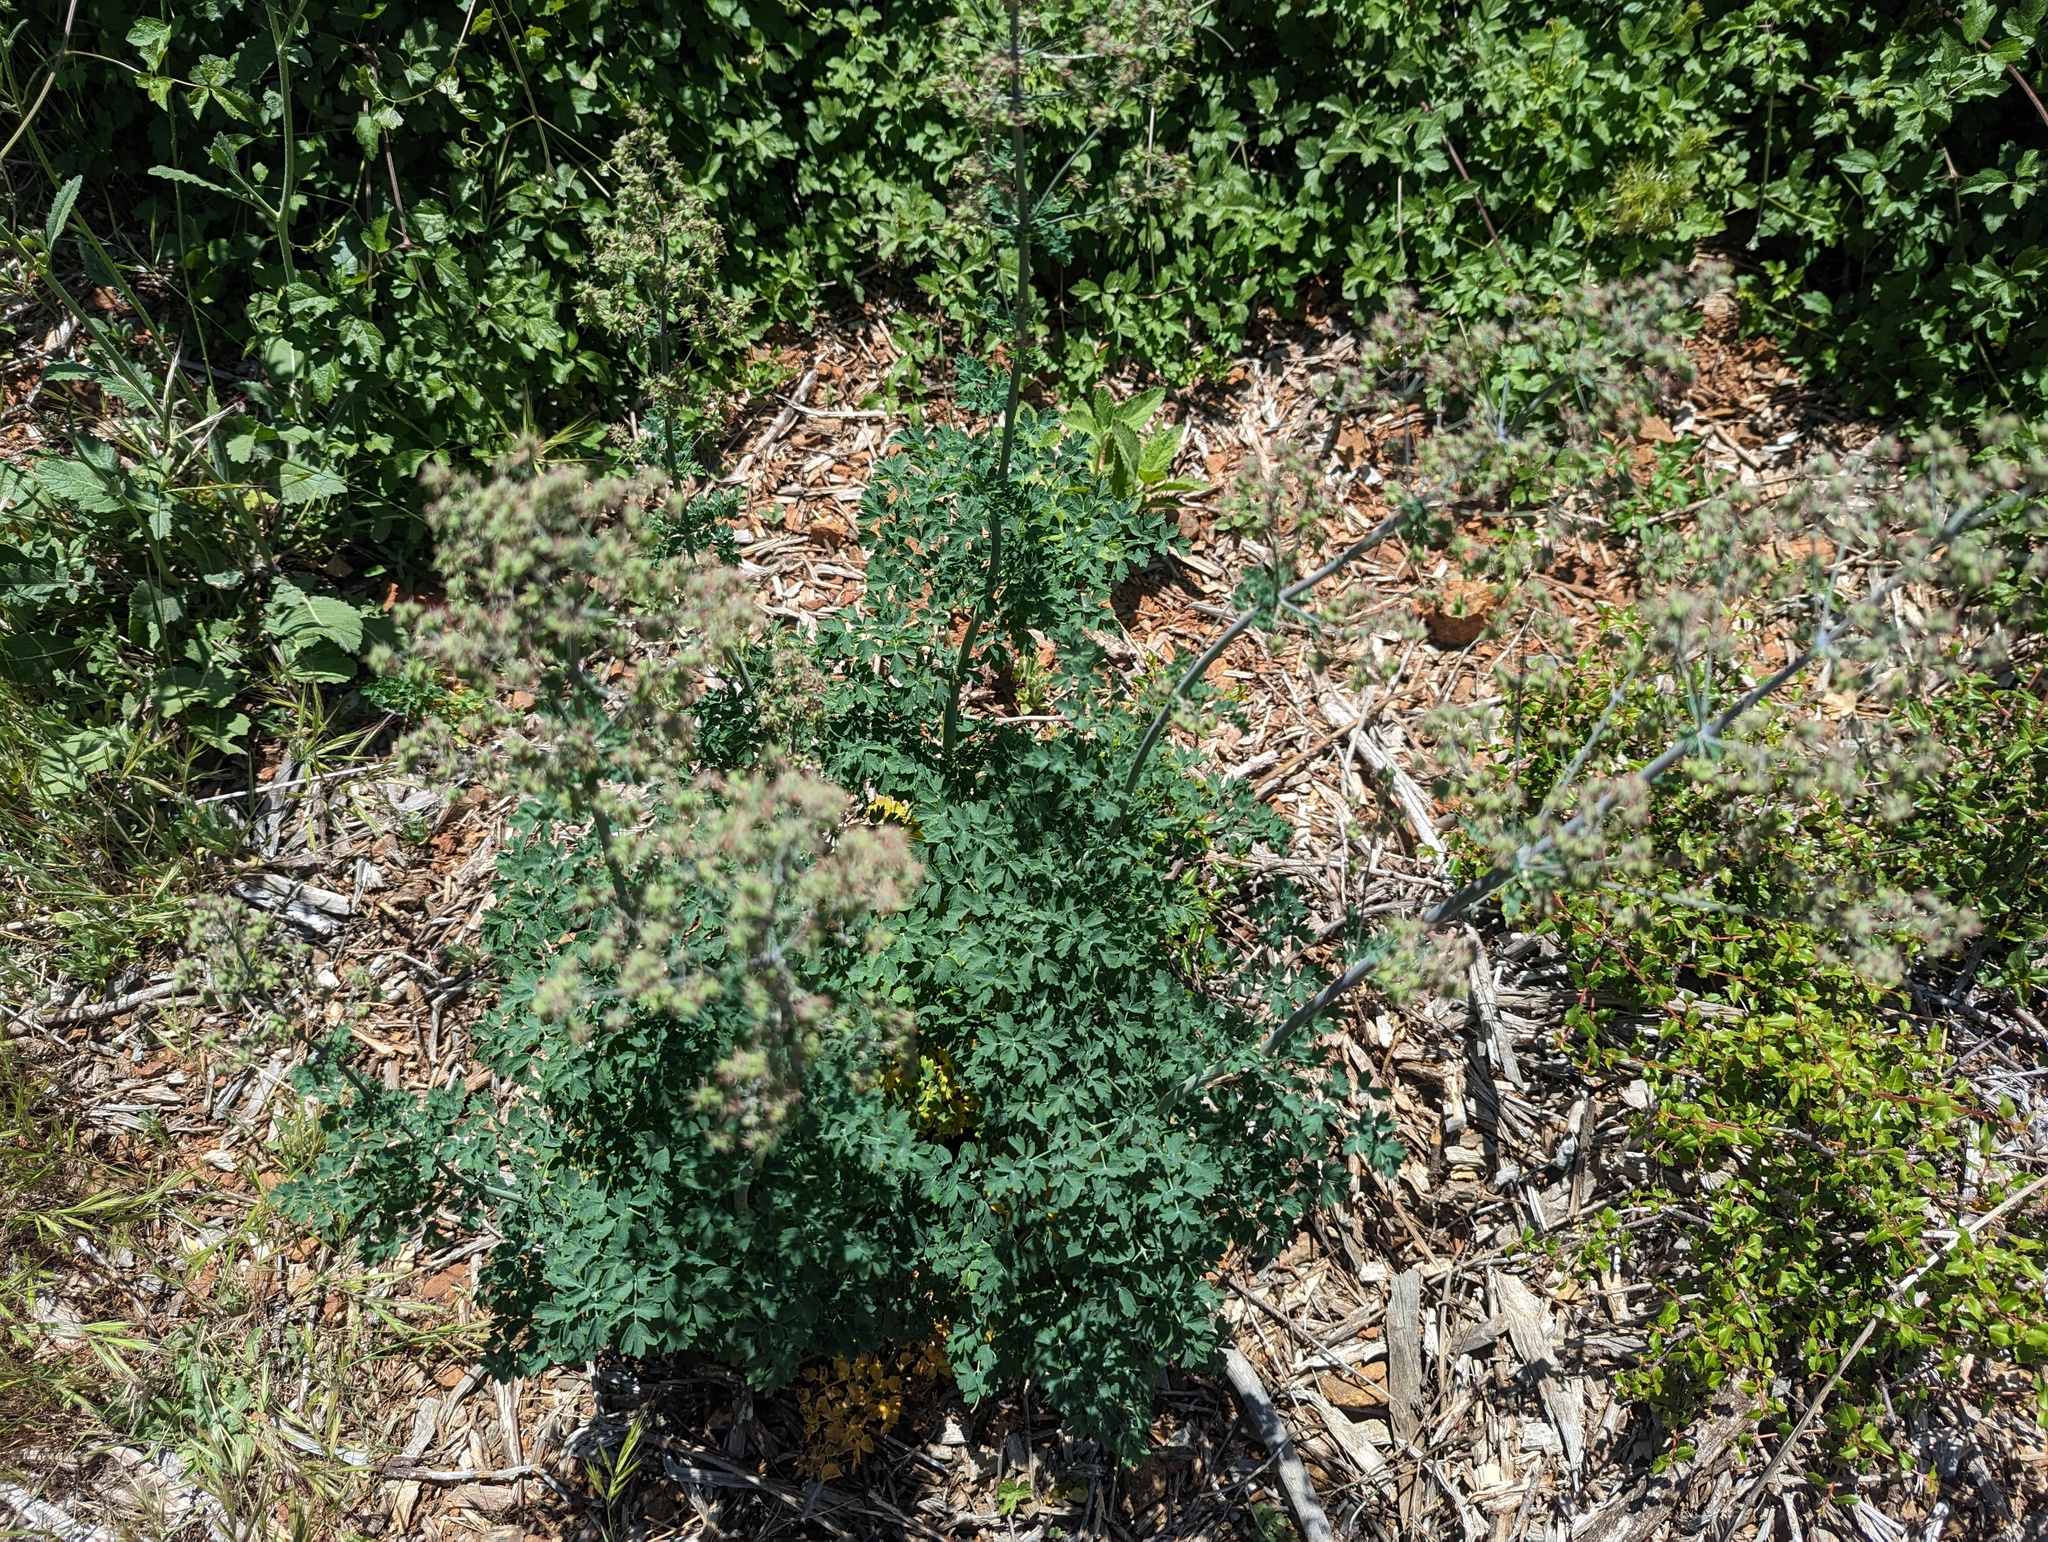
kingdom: Plantae
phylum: Tracheophyta
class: Magnoliopsida
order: Ranunculales
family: Ranunculaceae
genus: Thalictrum
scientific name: Thalictrum fendleri
